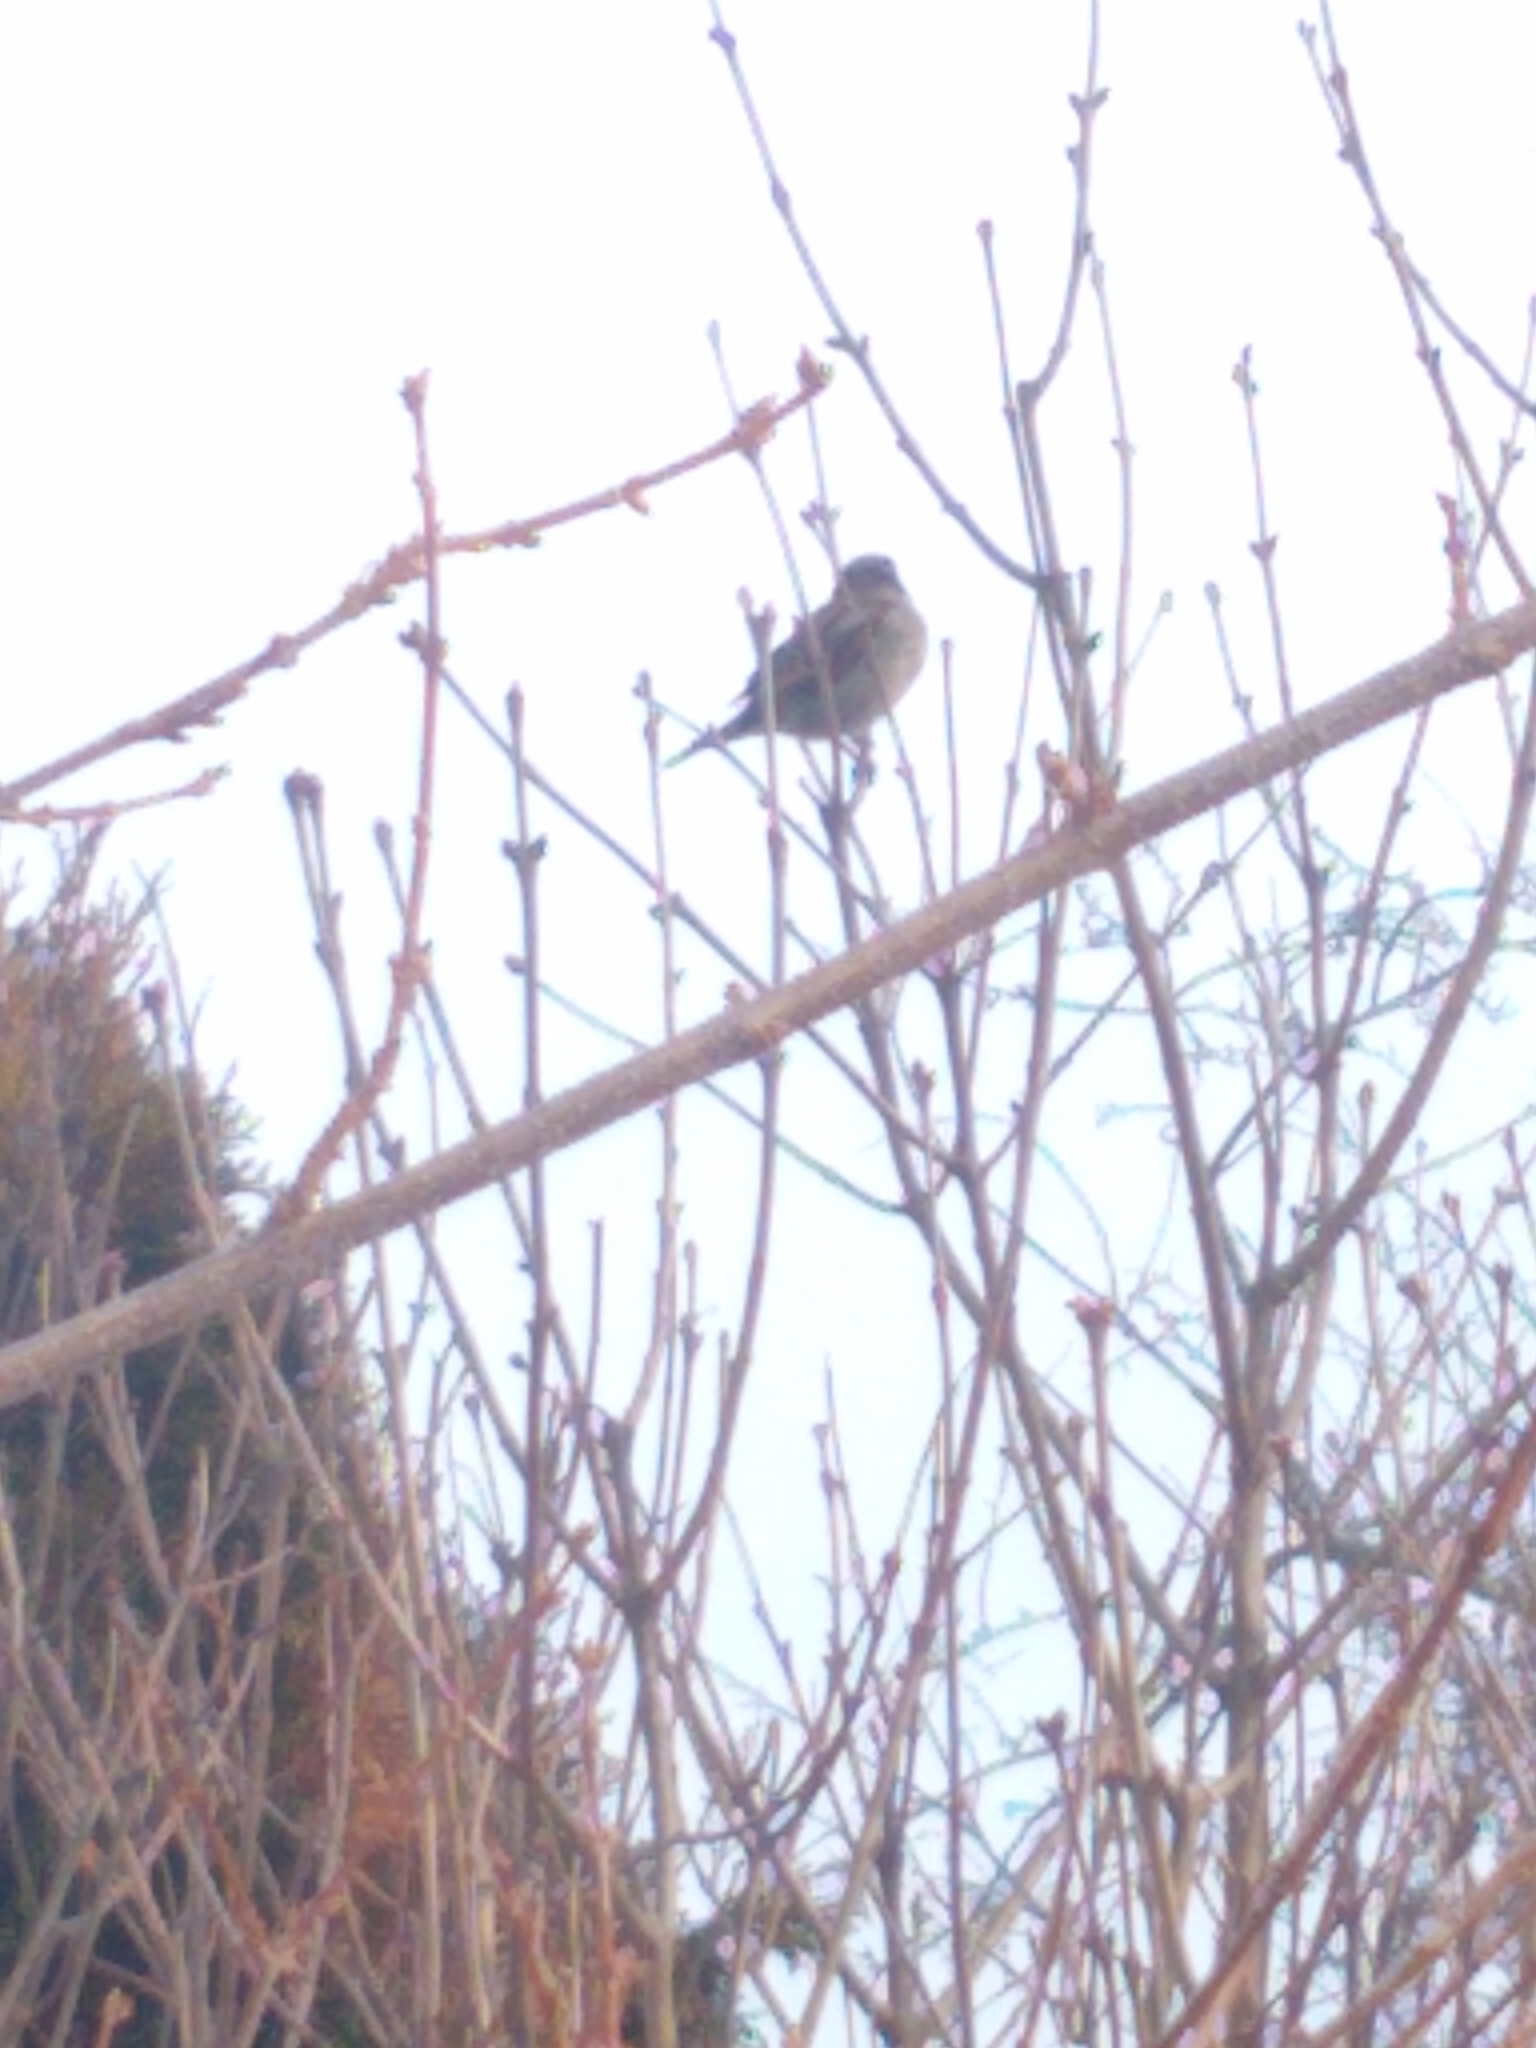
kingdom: Animalia
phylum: Chordata
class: Aves
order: Passeriformes
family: Passeridae
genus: Passer
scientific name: Passer domesticus
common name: House sparrow
